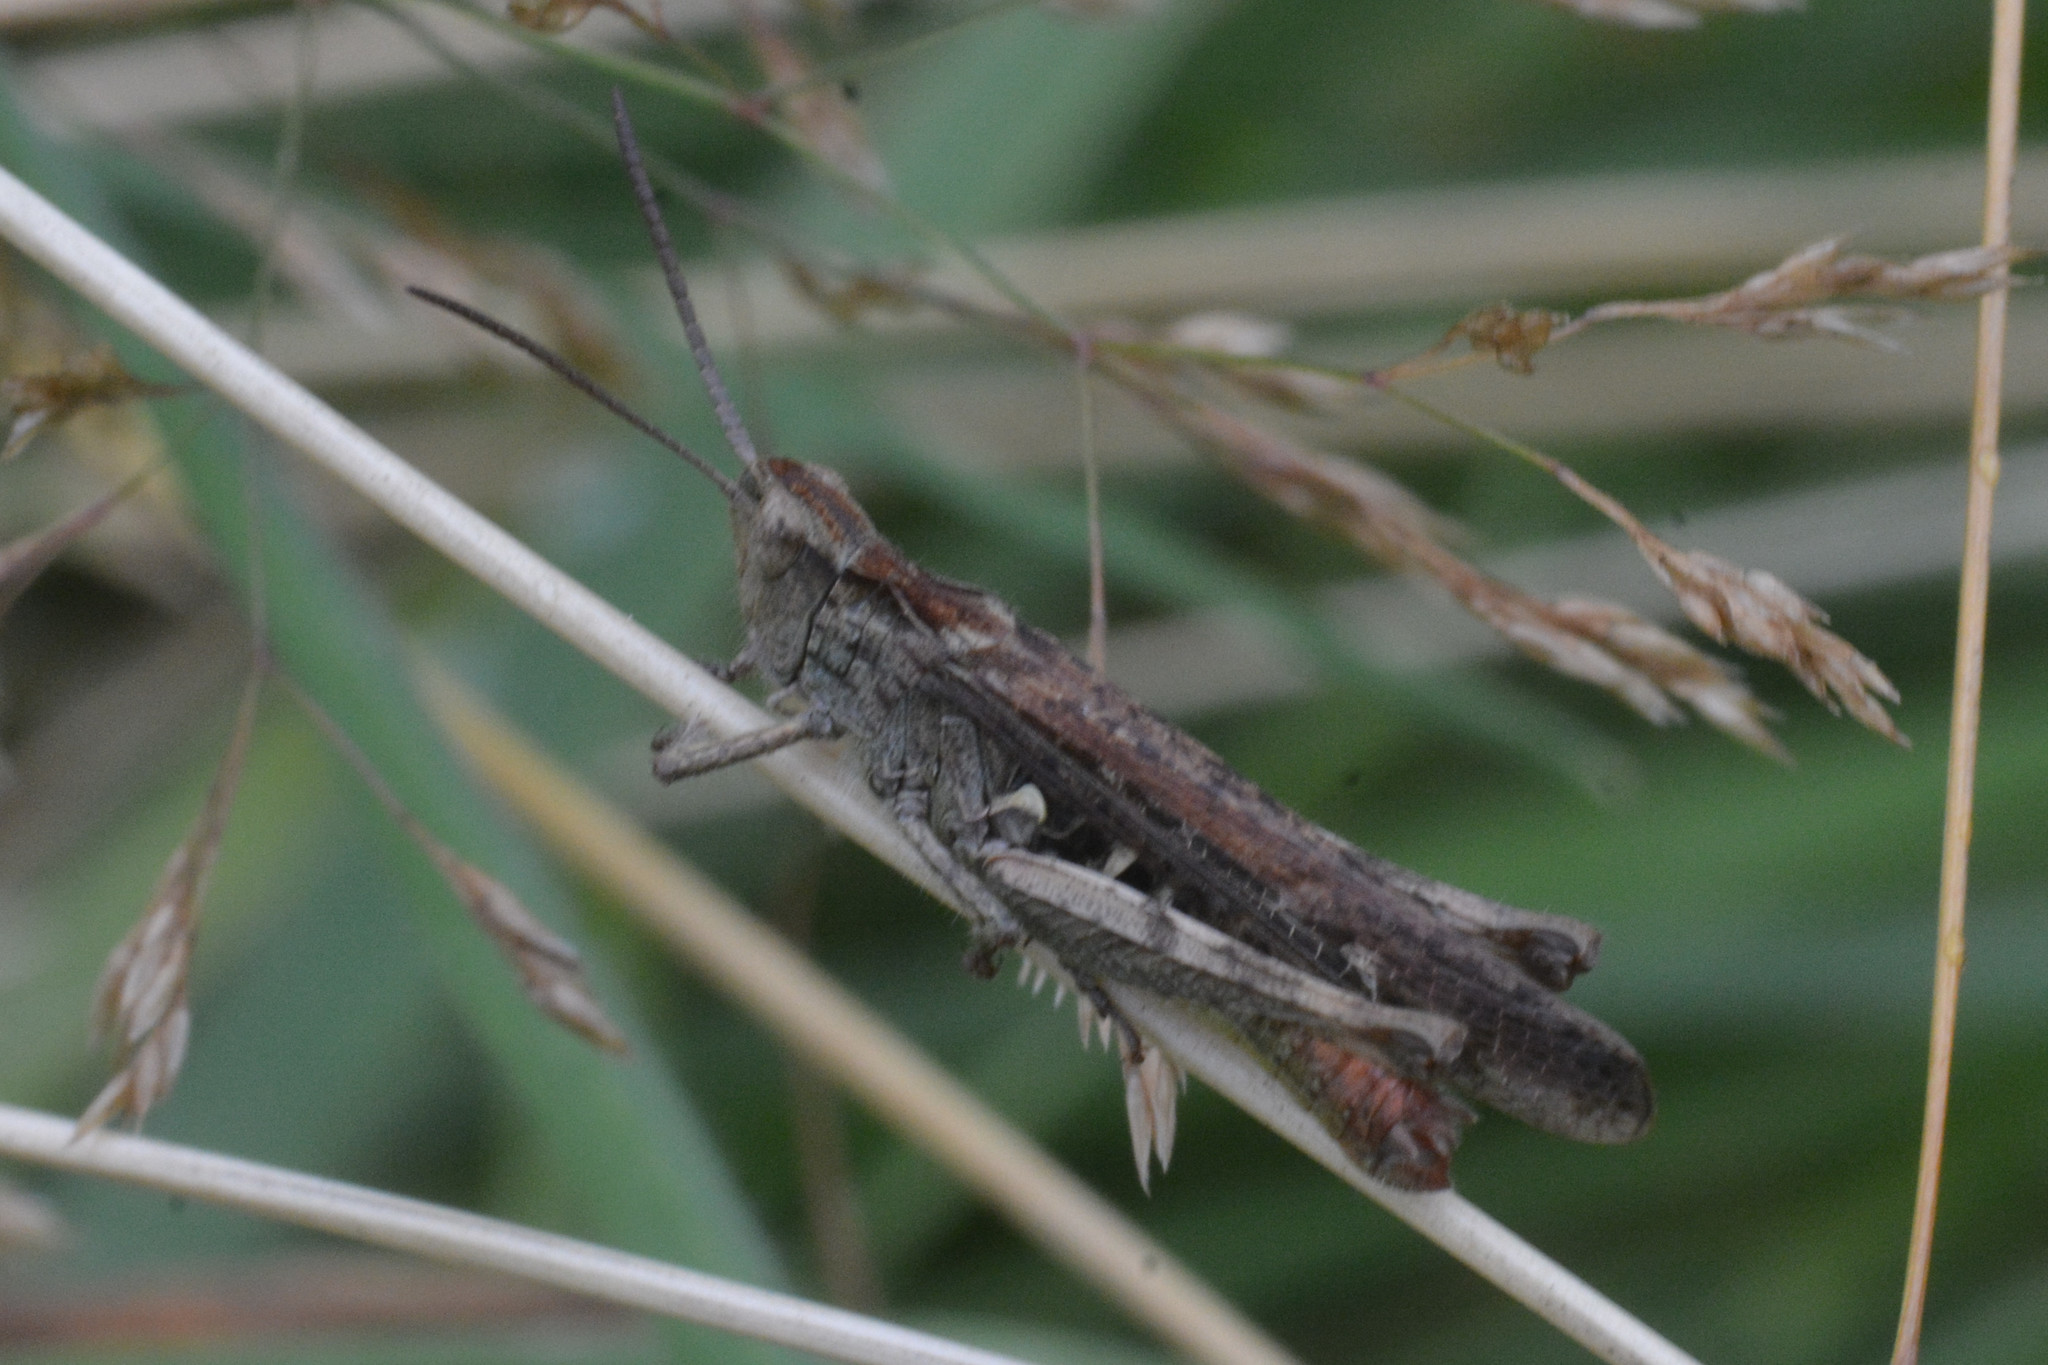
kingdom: Animalia
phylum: Arthropoda
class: Insecta
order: Orthoptera
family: Acrididae
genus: Chorthippus
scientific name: Chorthippus brunneus
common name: Field grasshopper
